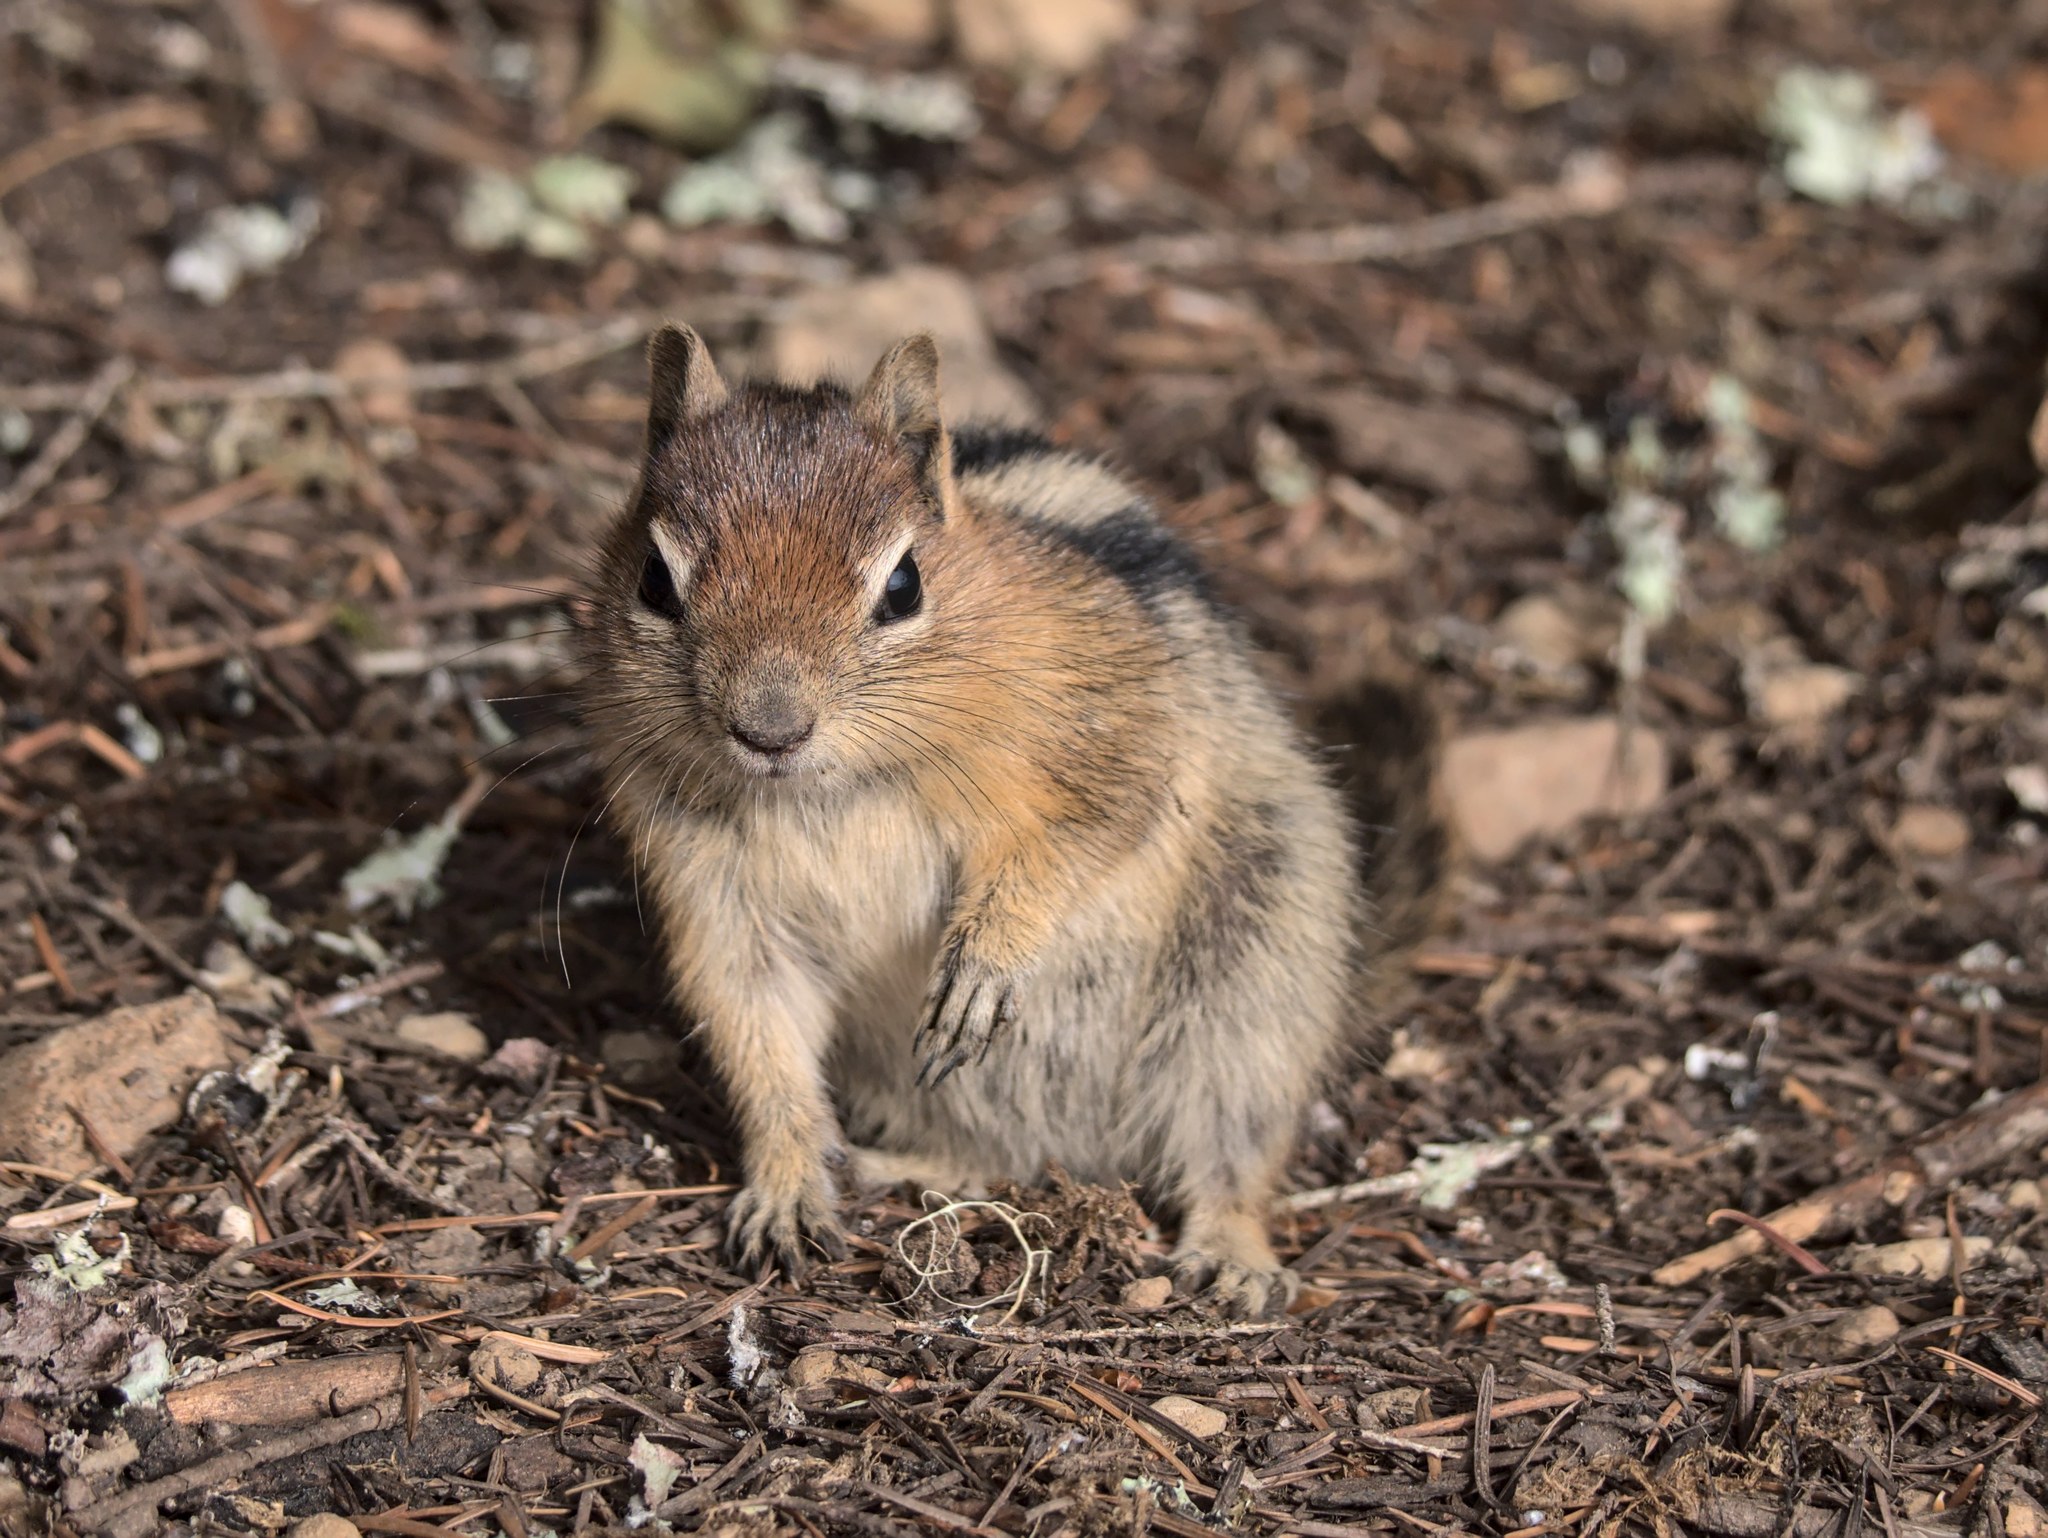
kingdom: Animalia
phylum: Chordata
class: Mammalia
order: Rodentia
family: Sciuridae
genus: Callospermophilus
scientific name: Callospermophilus lateralis
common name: Golden-mantled ground squirrel
